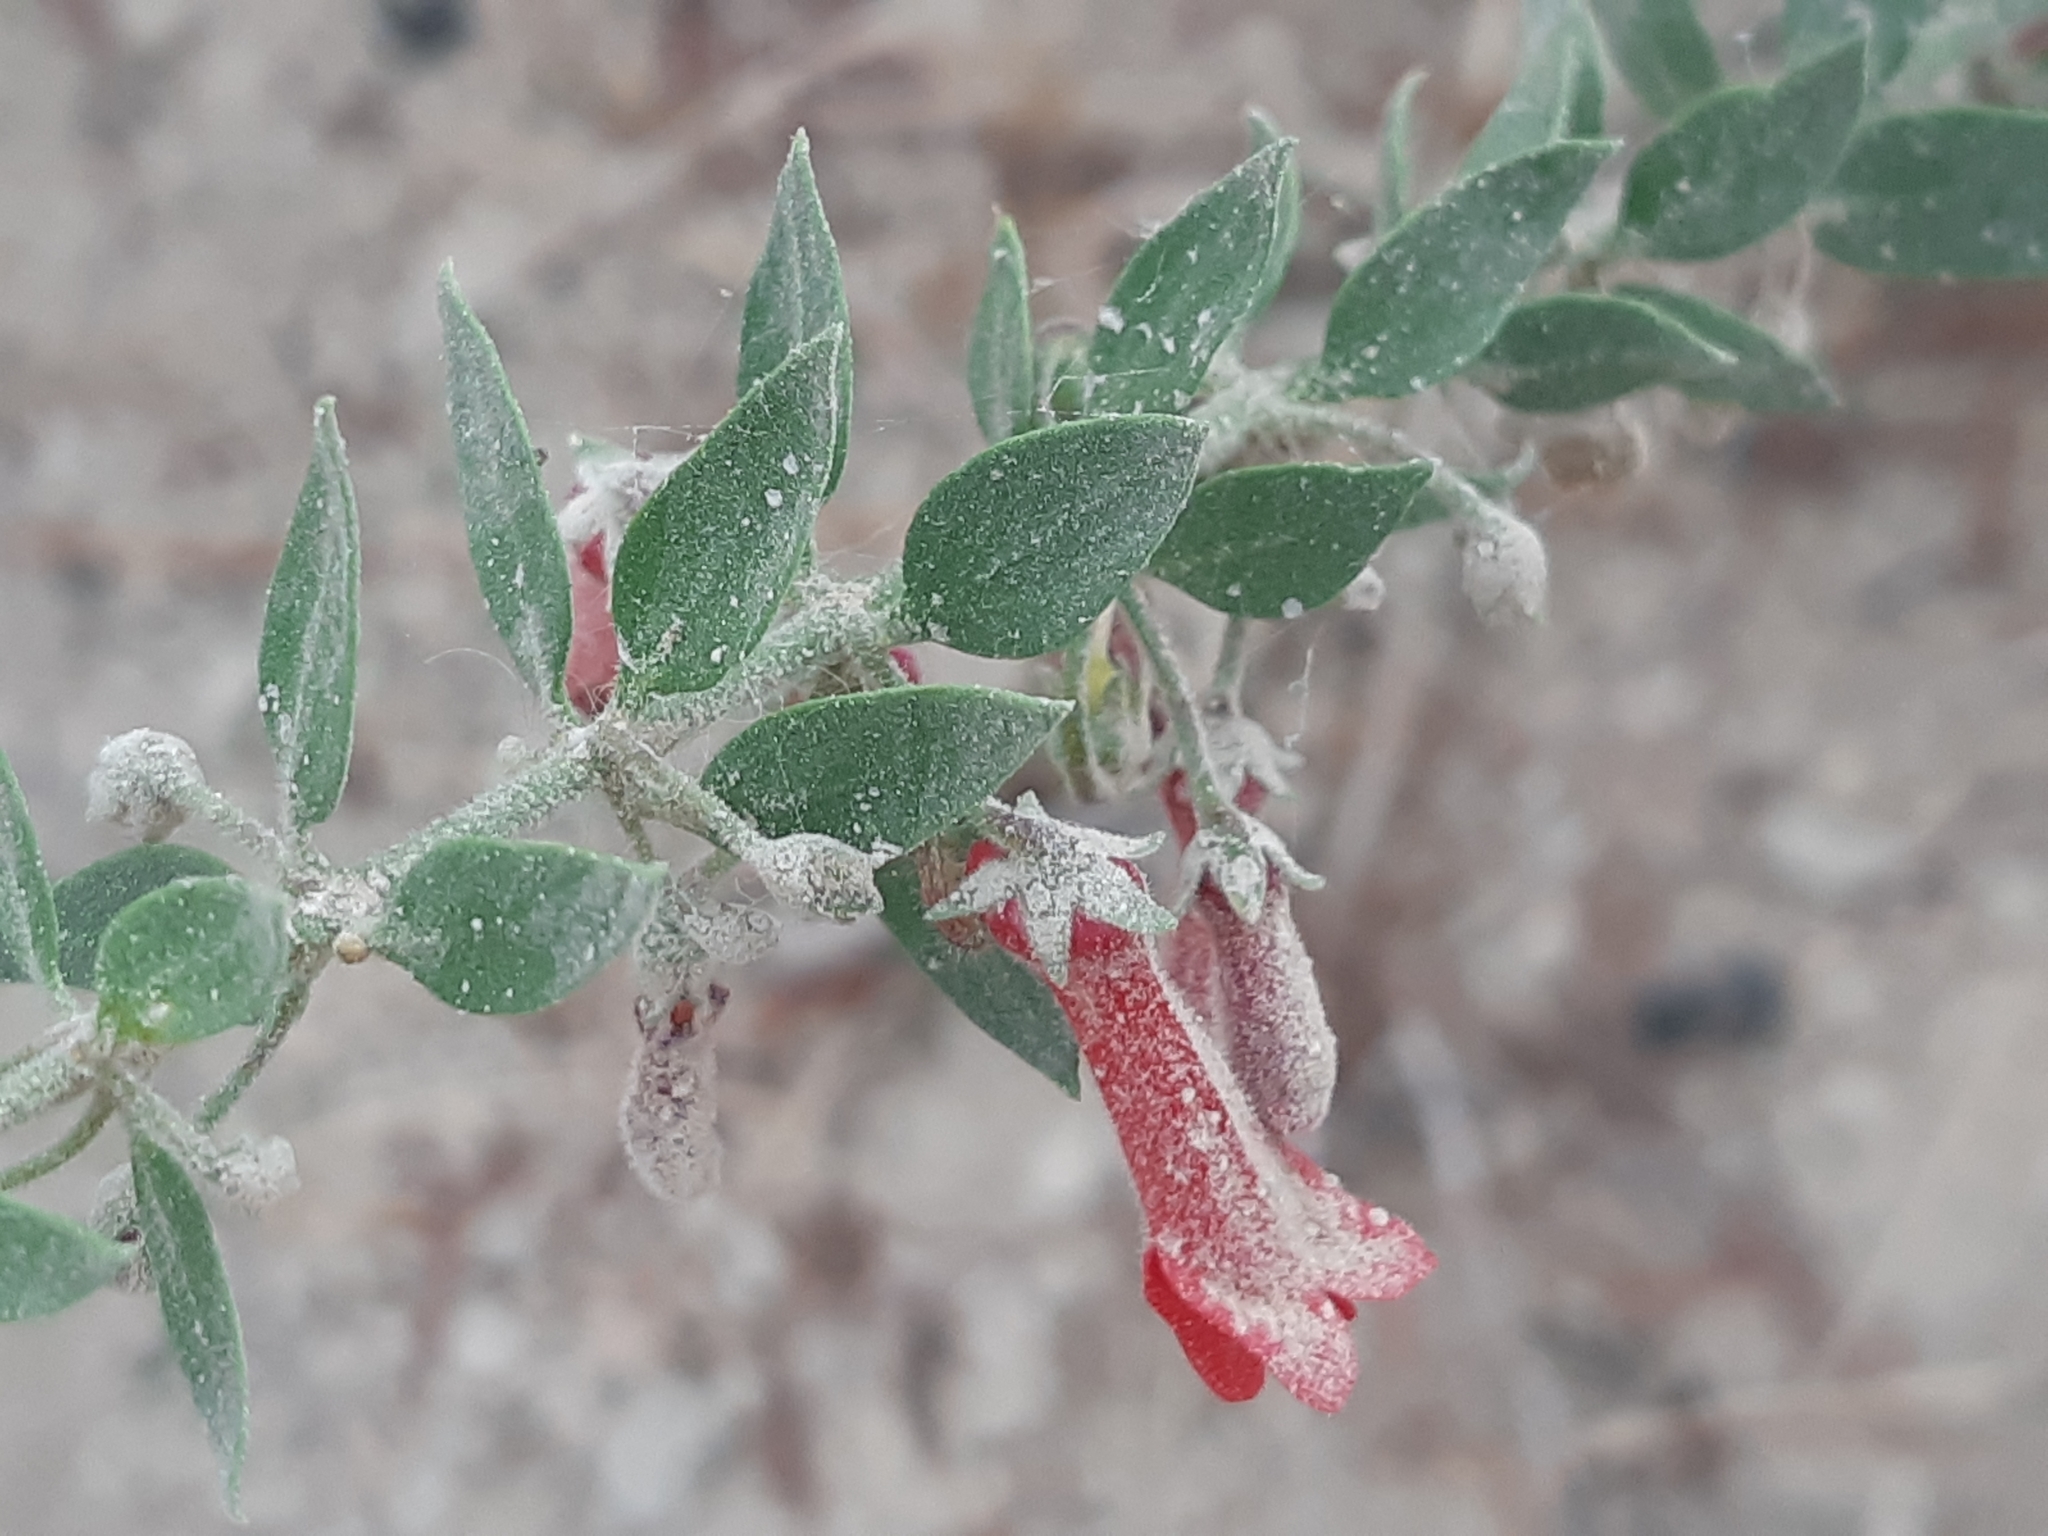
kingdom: Plantae
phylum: Tracheophyta
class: Magnoliopsida
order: Lamiales
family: Plantaginaceae
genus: Galvezia
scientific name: Galvezia lanceolata
